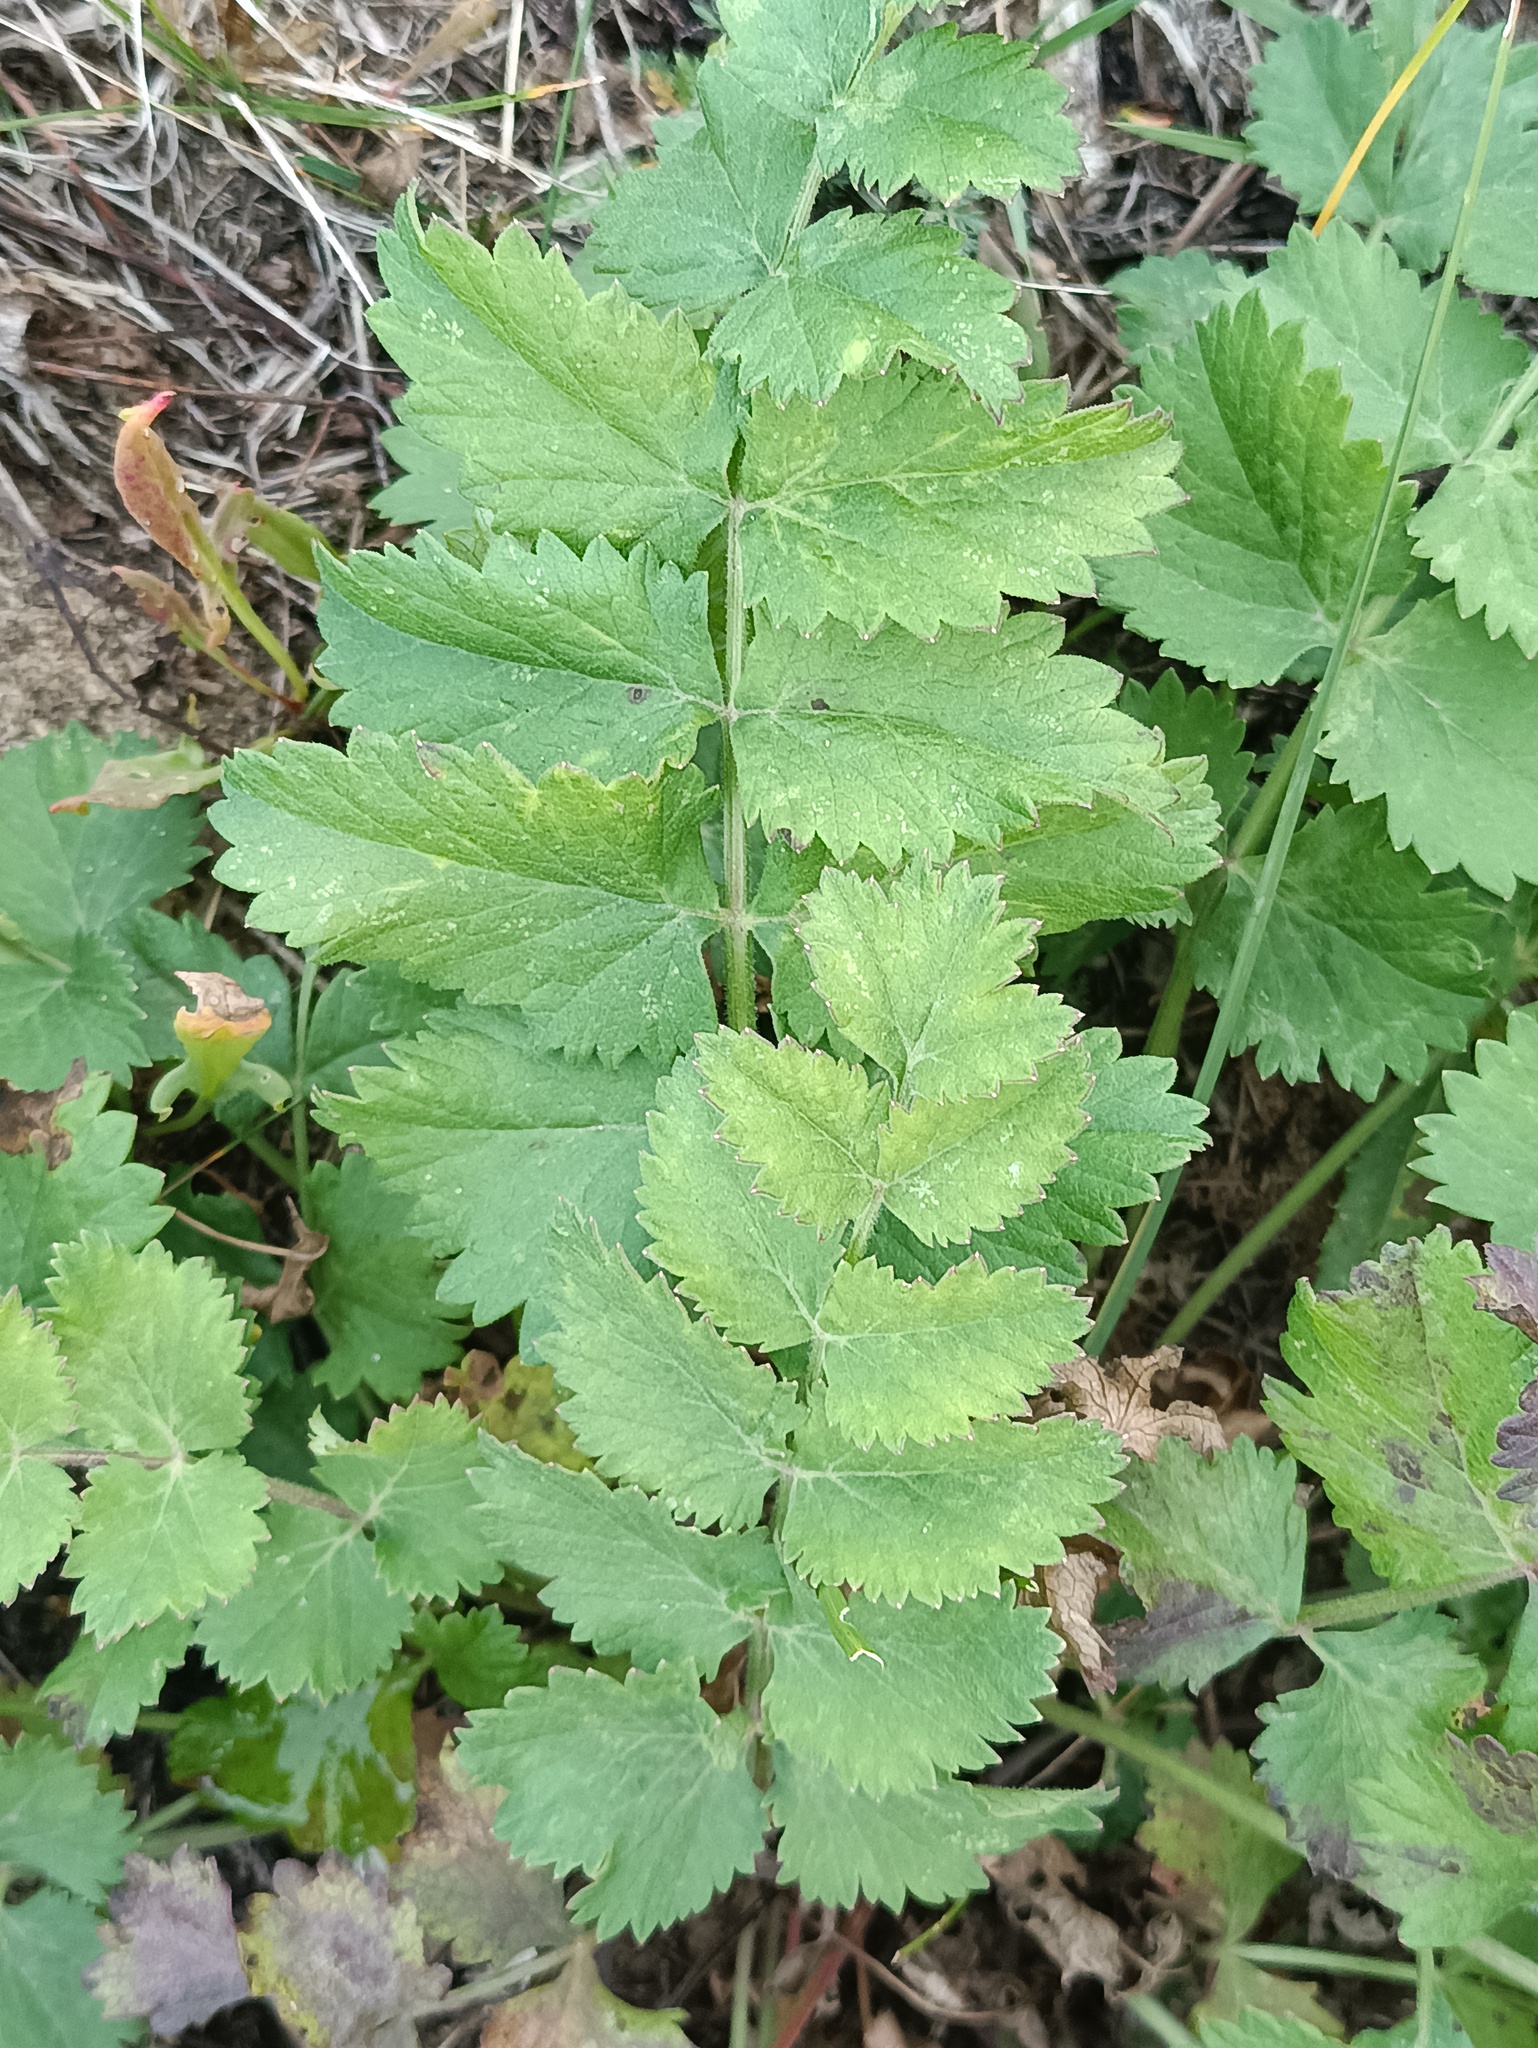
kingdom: Plantae
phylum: Tracheophyta
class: Magnoliopsida
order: Apiales
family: Apiaceae
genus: Pimpinella
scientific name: Pimpinella saxifraga
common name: Burnet-saxifrage
